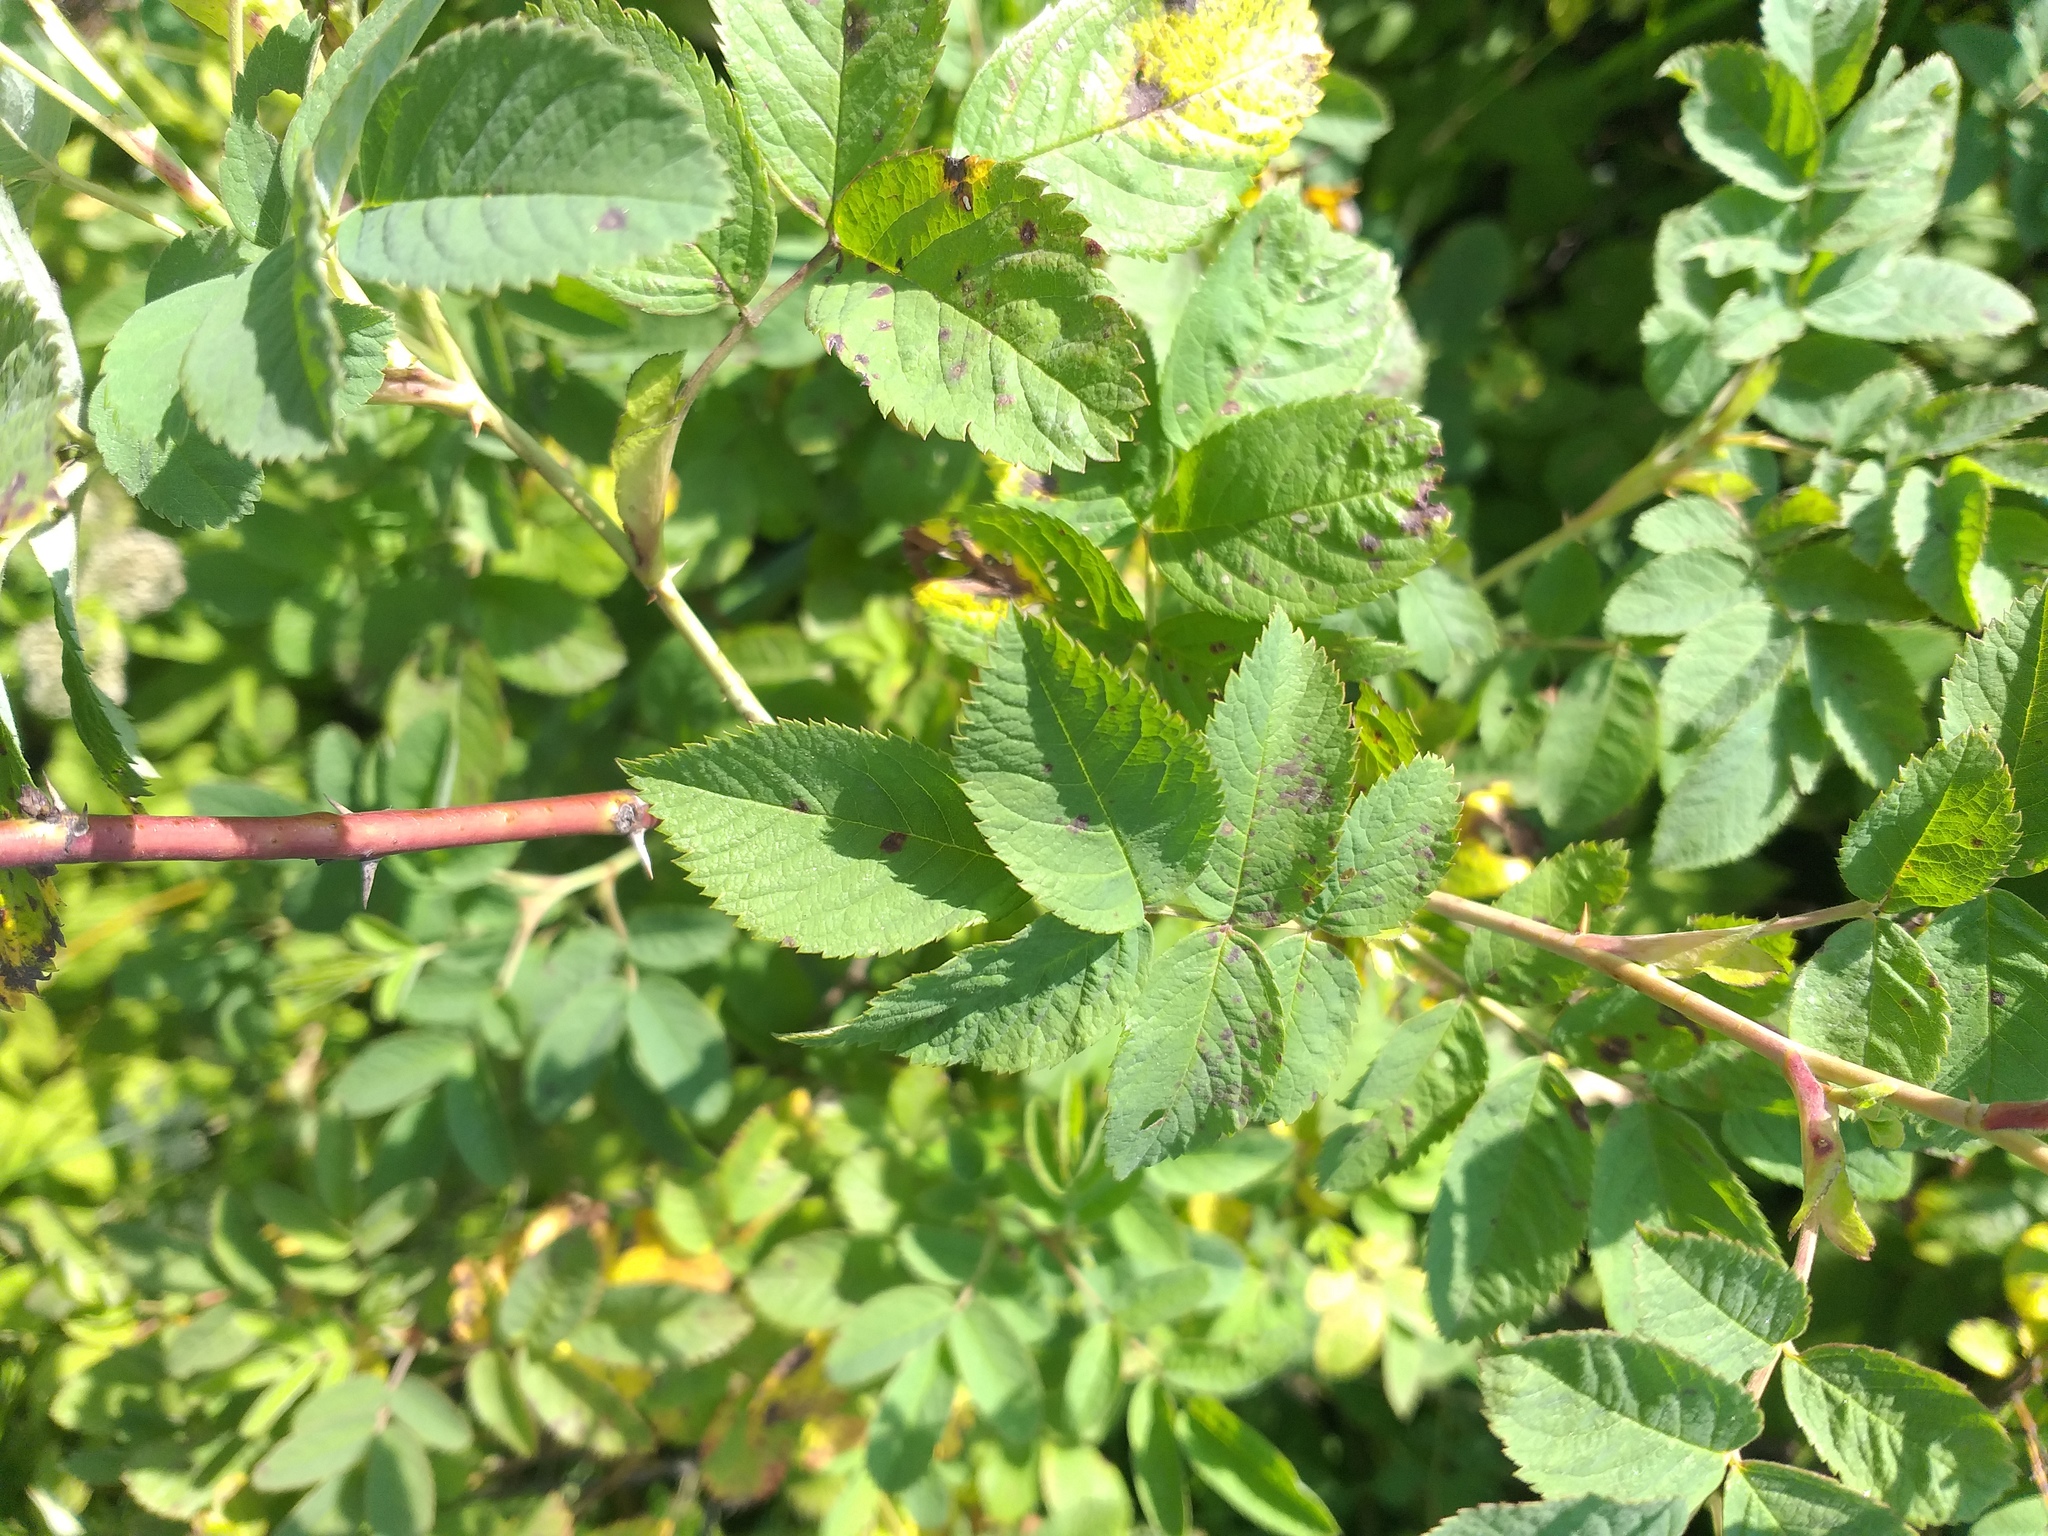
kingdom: Plantae
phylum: Tracheophyta
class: Magnoliopsida
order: Rosales
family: Rosaceae
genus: Rosa
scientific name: Rosa majalis
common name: Cinnamon rose
